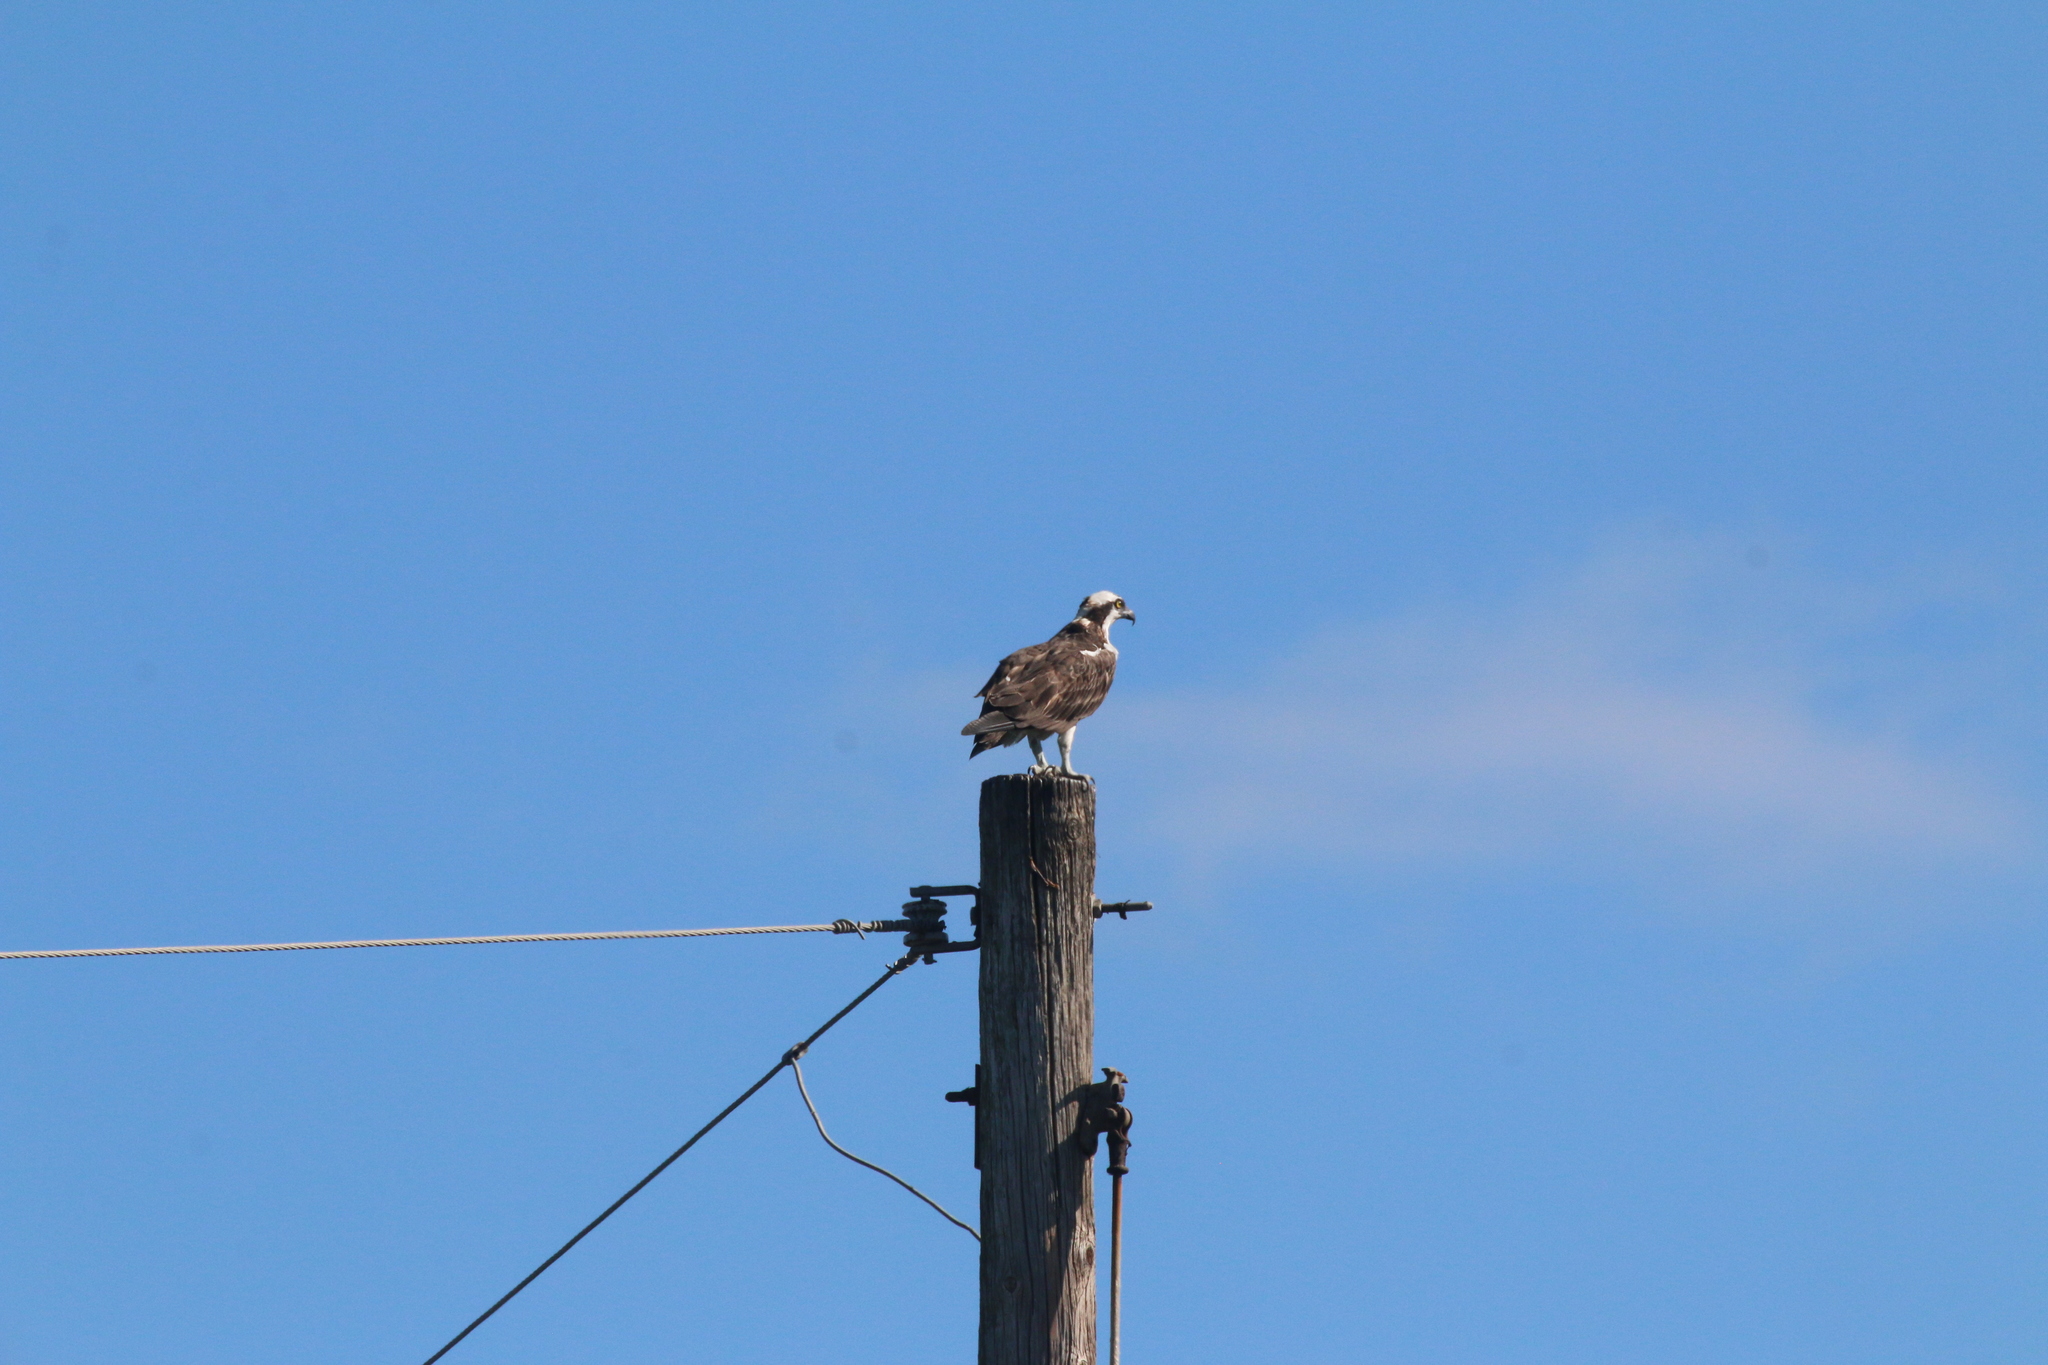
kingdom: Animalia
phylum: Chordata
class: Aves
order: Accipitriformes
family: Pandionidae
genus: Pandion
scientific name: Pandion haliaetus
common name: Osprey
